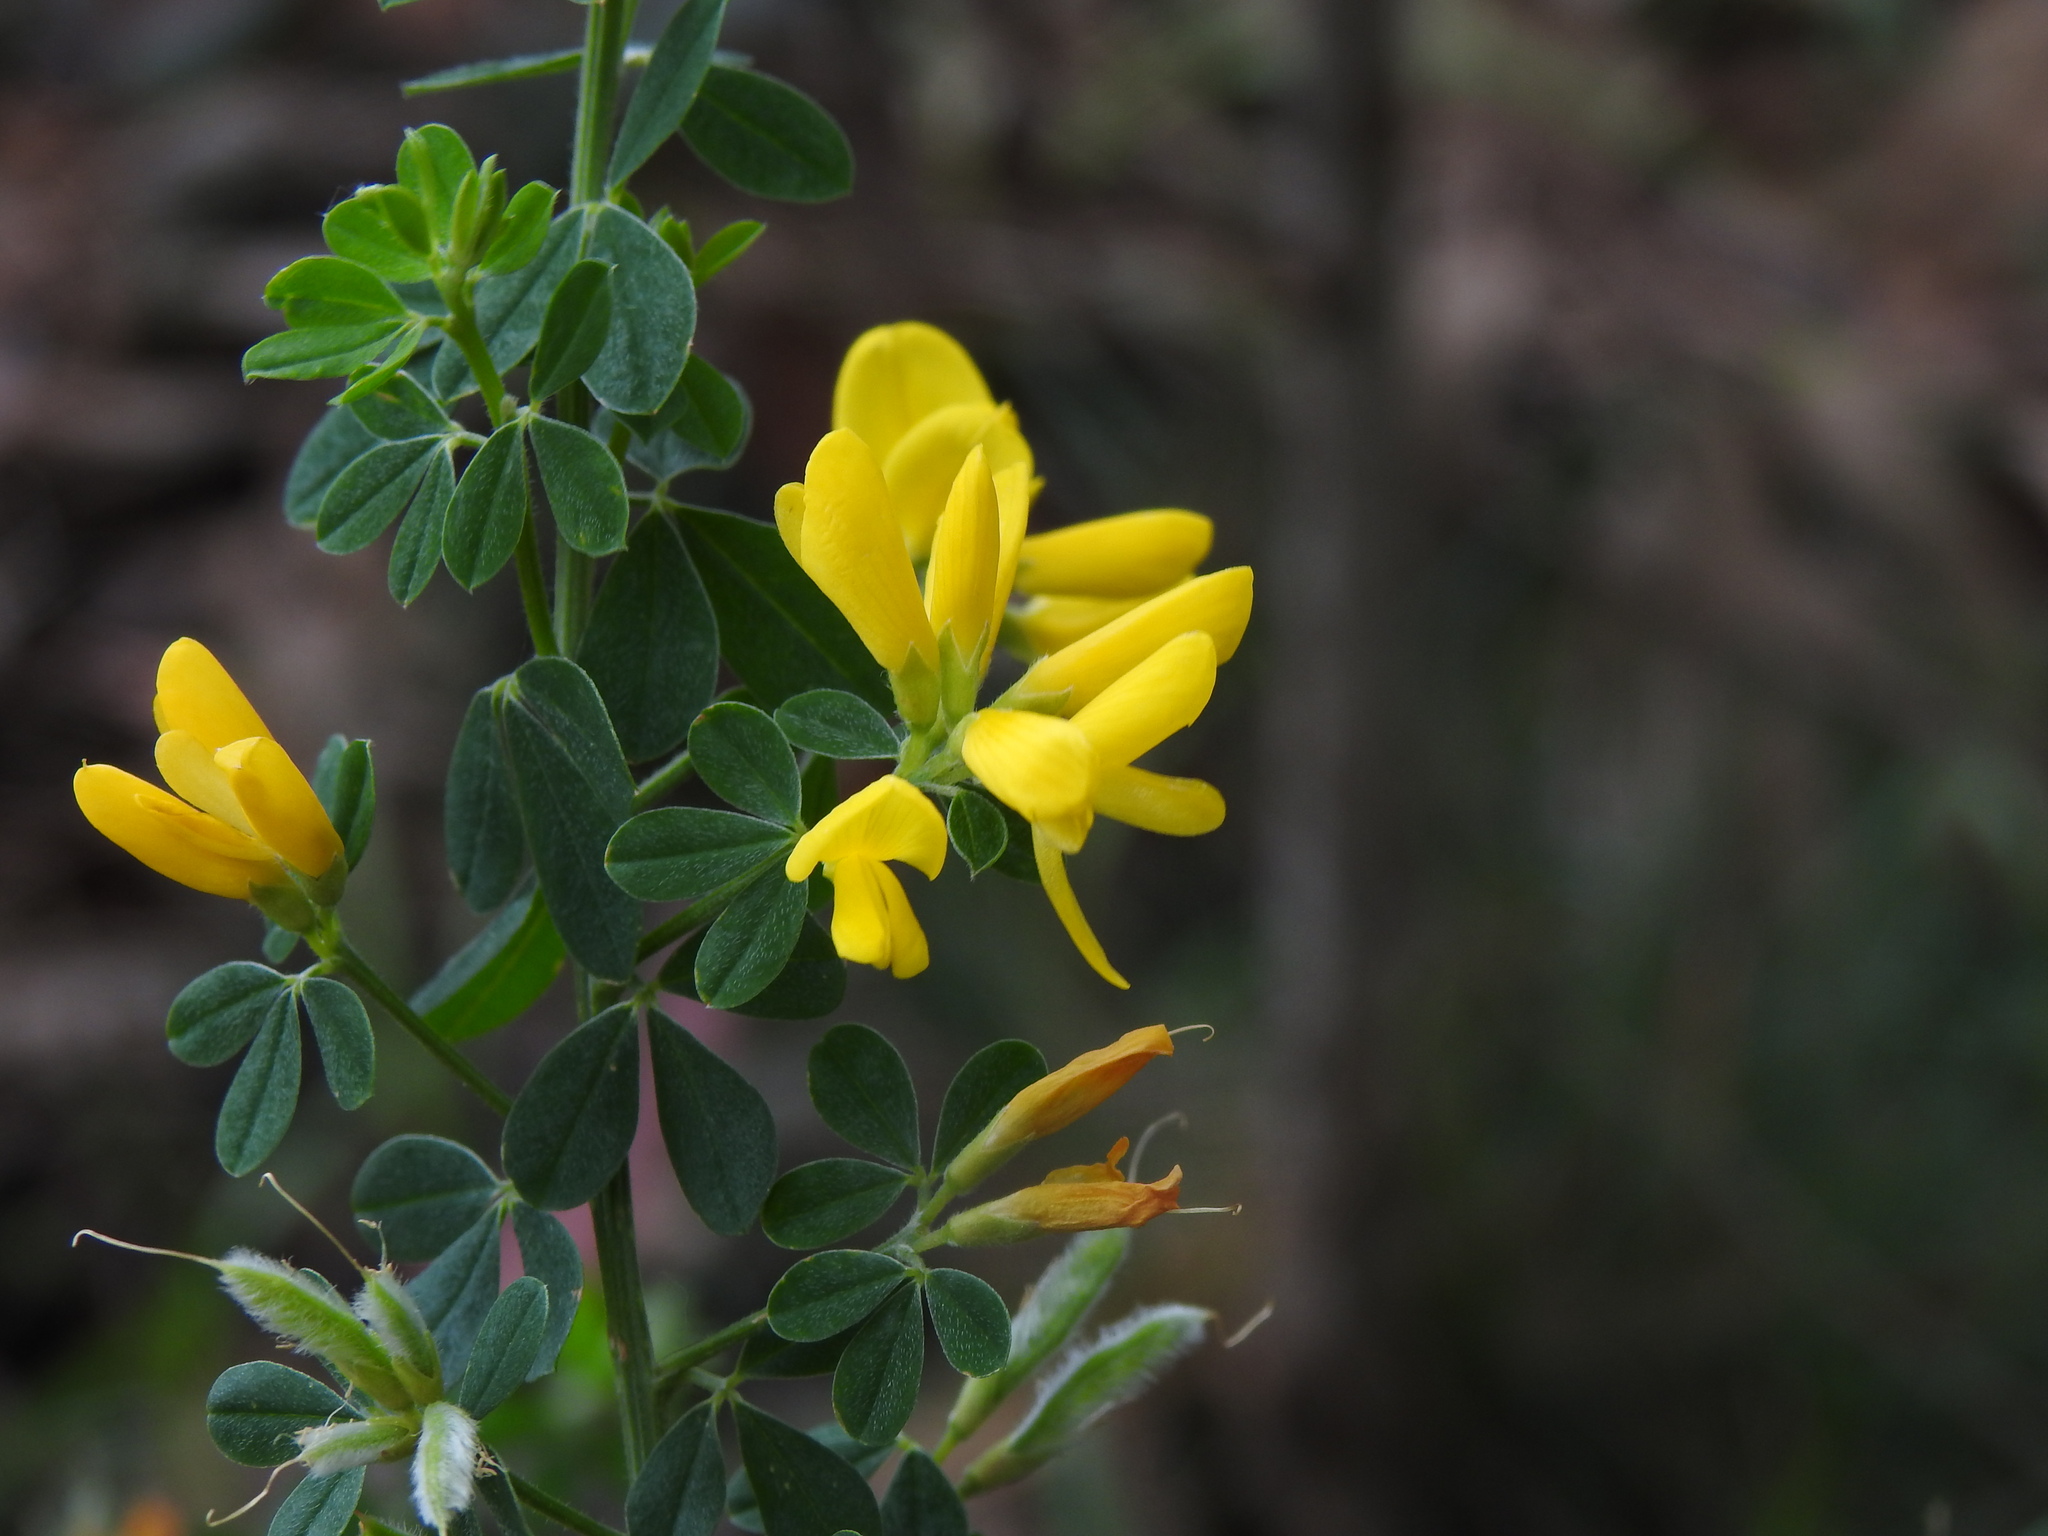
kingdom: Plantae
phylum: Tracheophyta
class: Magnoliopsida
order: Fabales
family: Fabaceae
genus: Genista
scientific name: Genista monspessulana
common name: Montpellier broom
